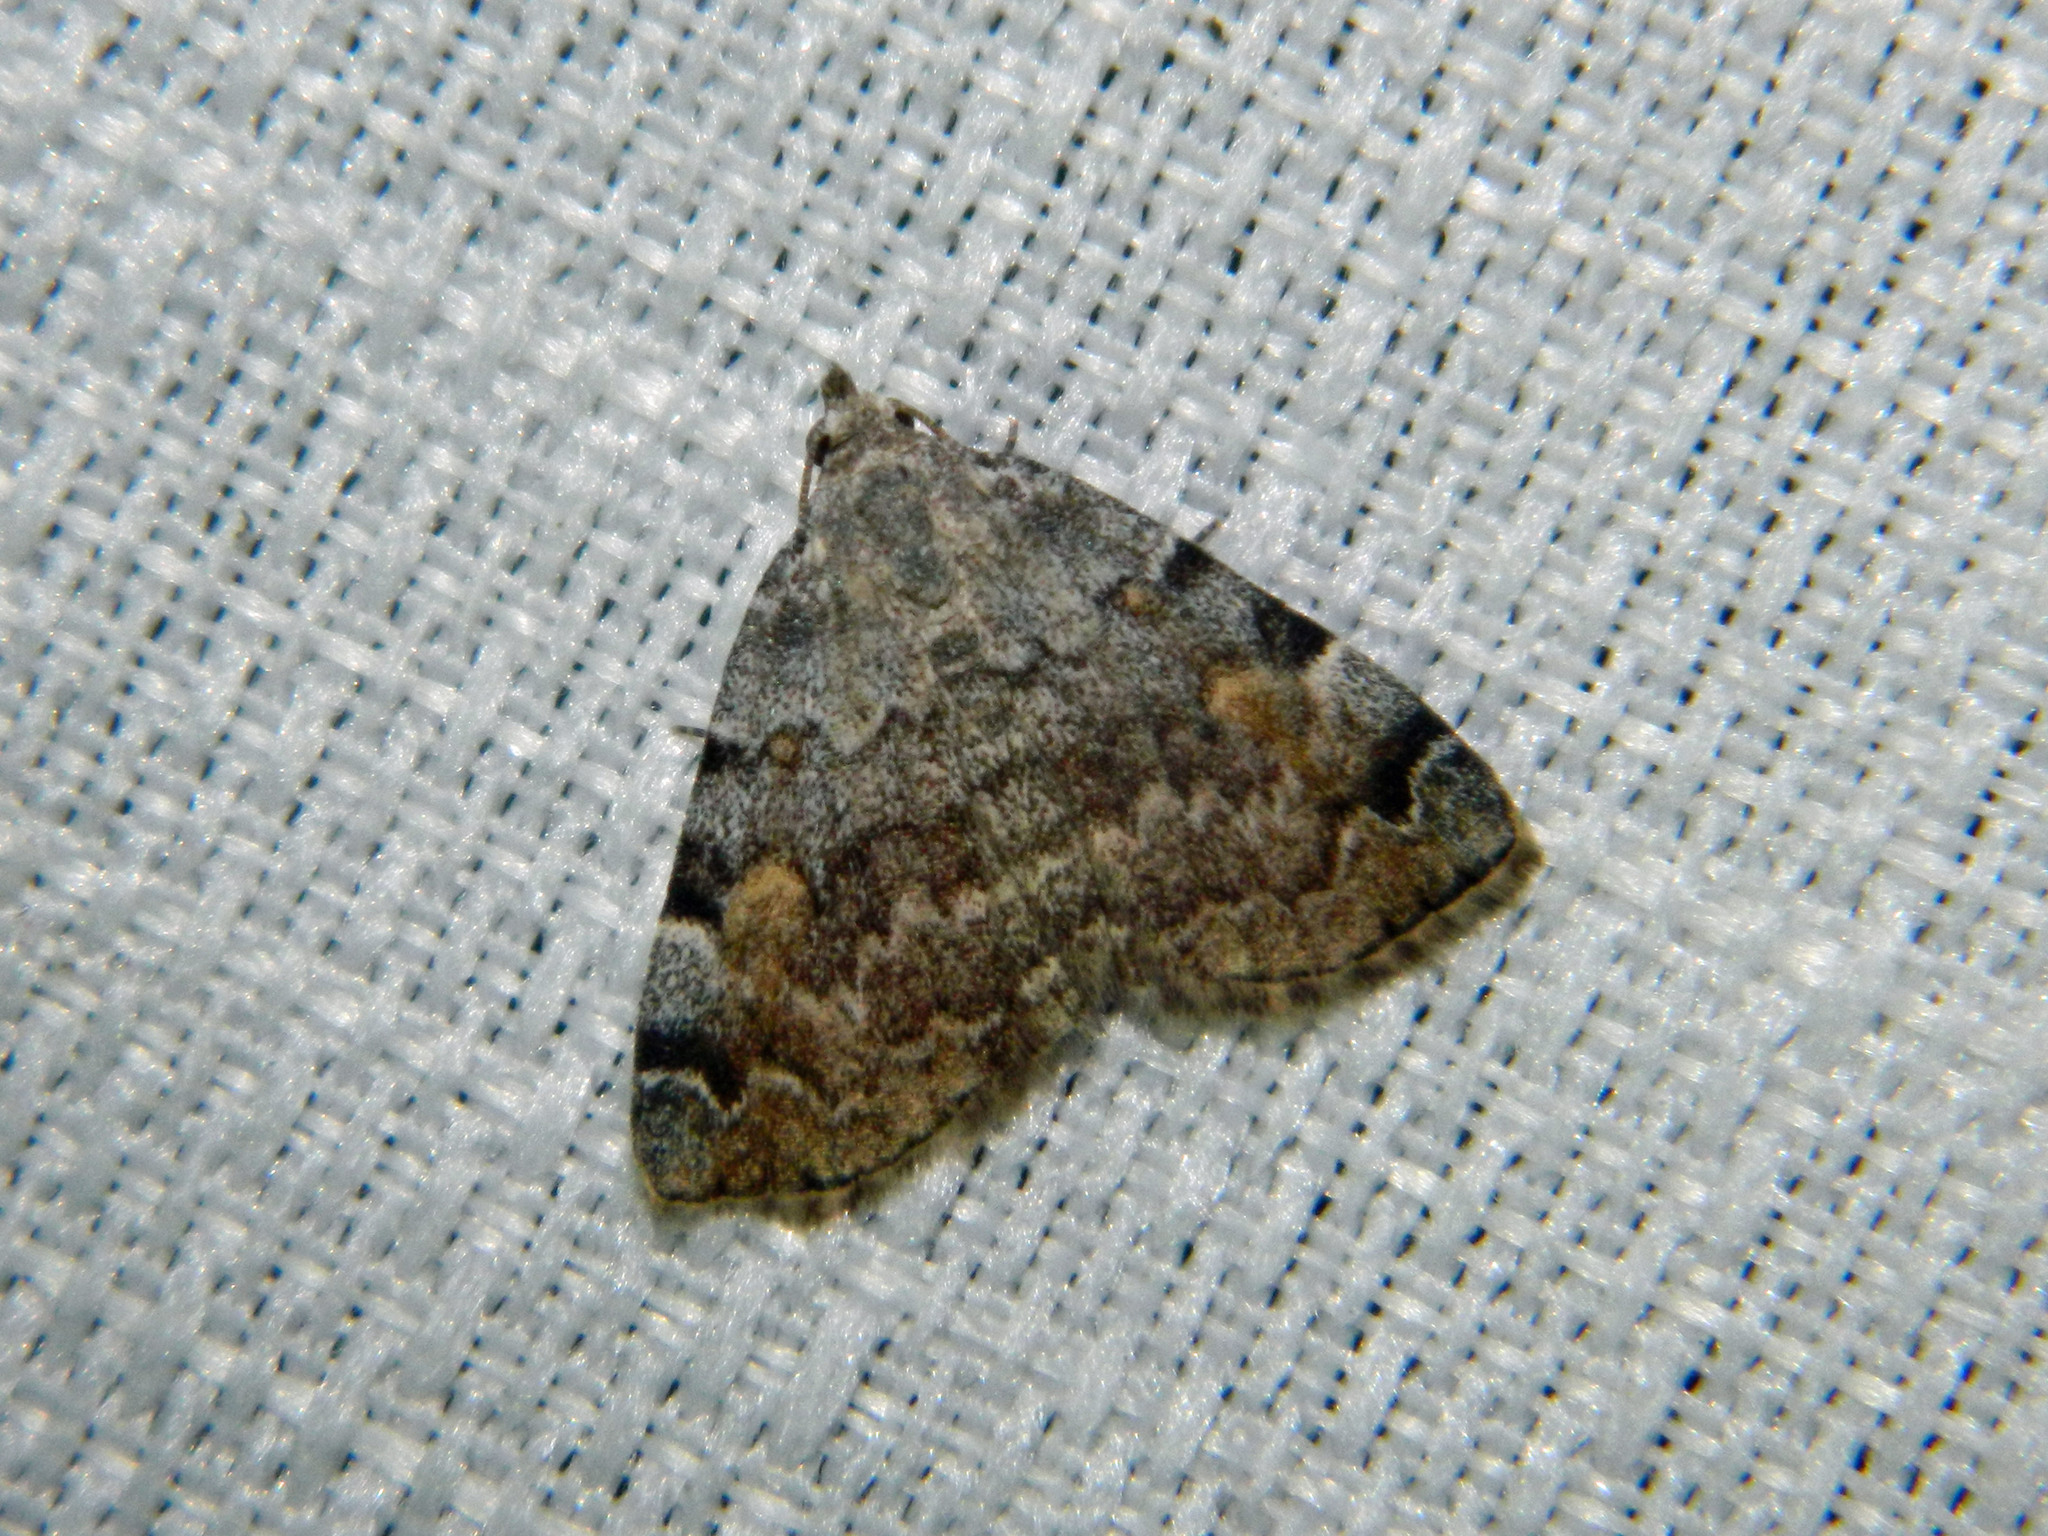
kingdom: Animalia
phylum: Arthropoda
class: Insecta
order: Lepidoptera
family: Erebidae
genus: Idia
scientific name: Idia americalis
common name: American idia moth
